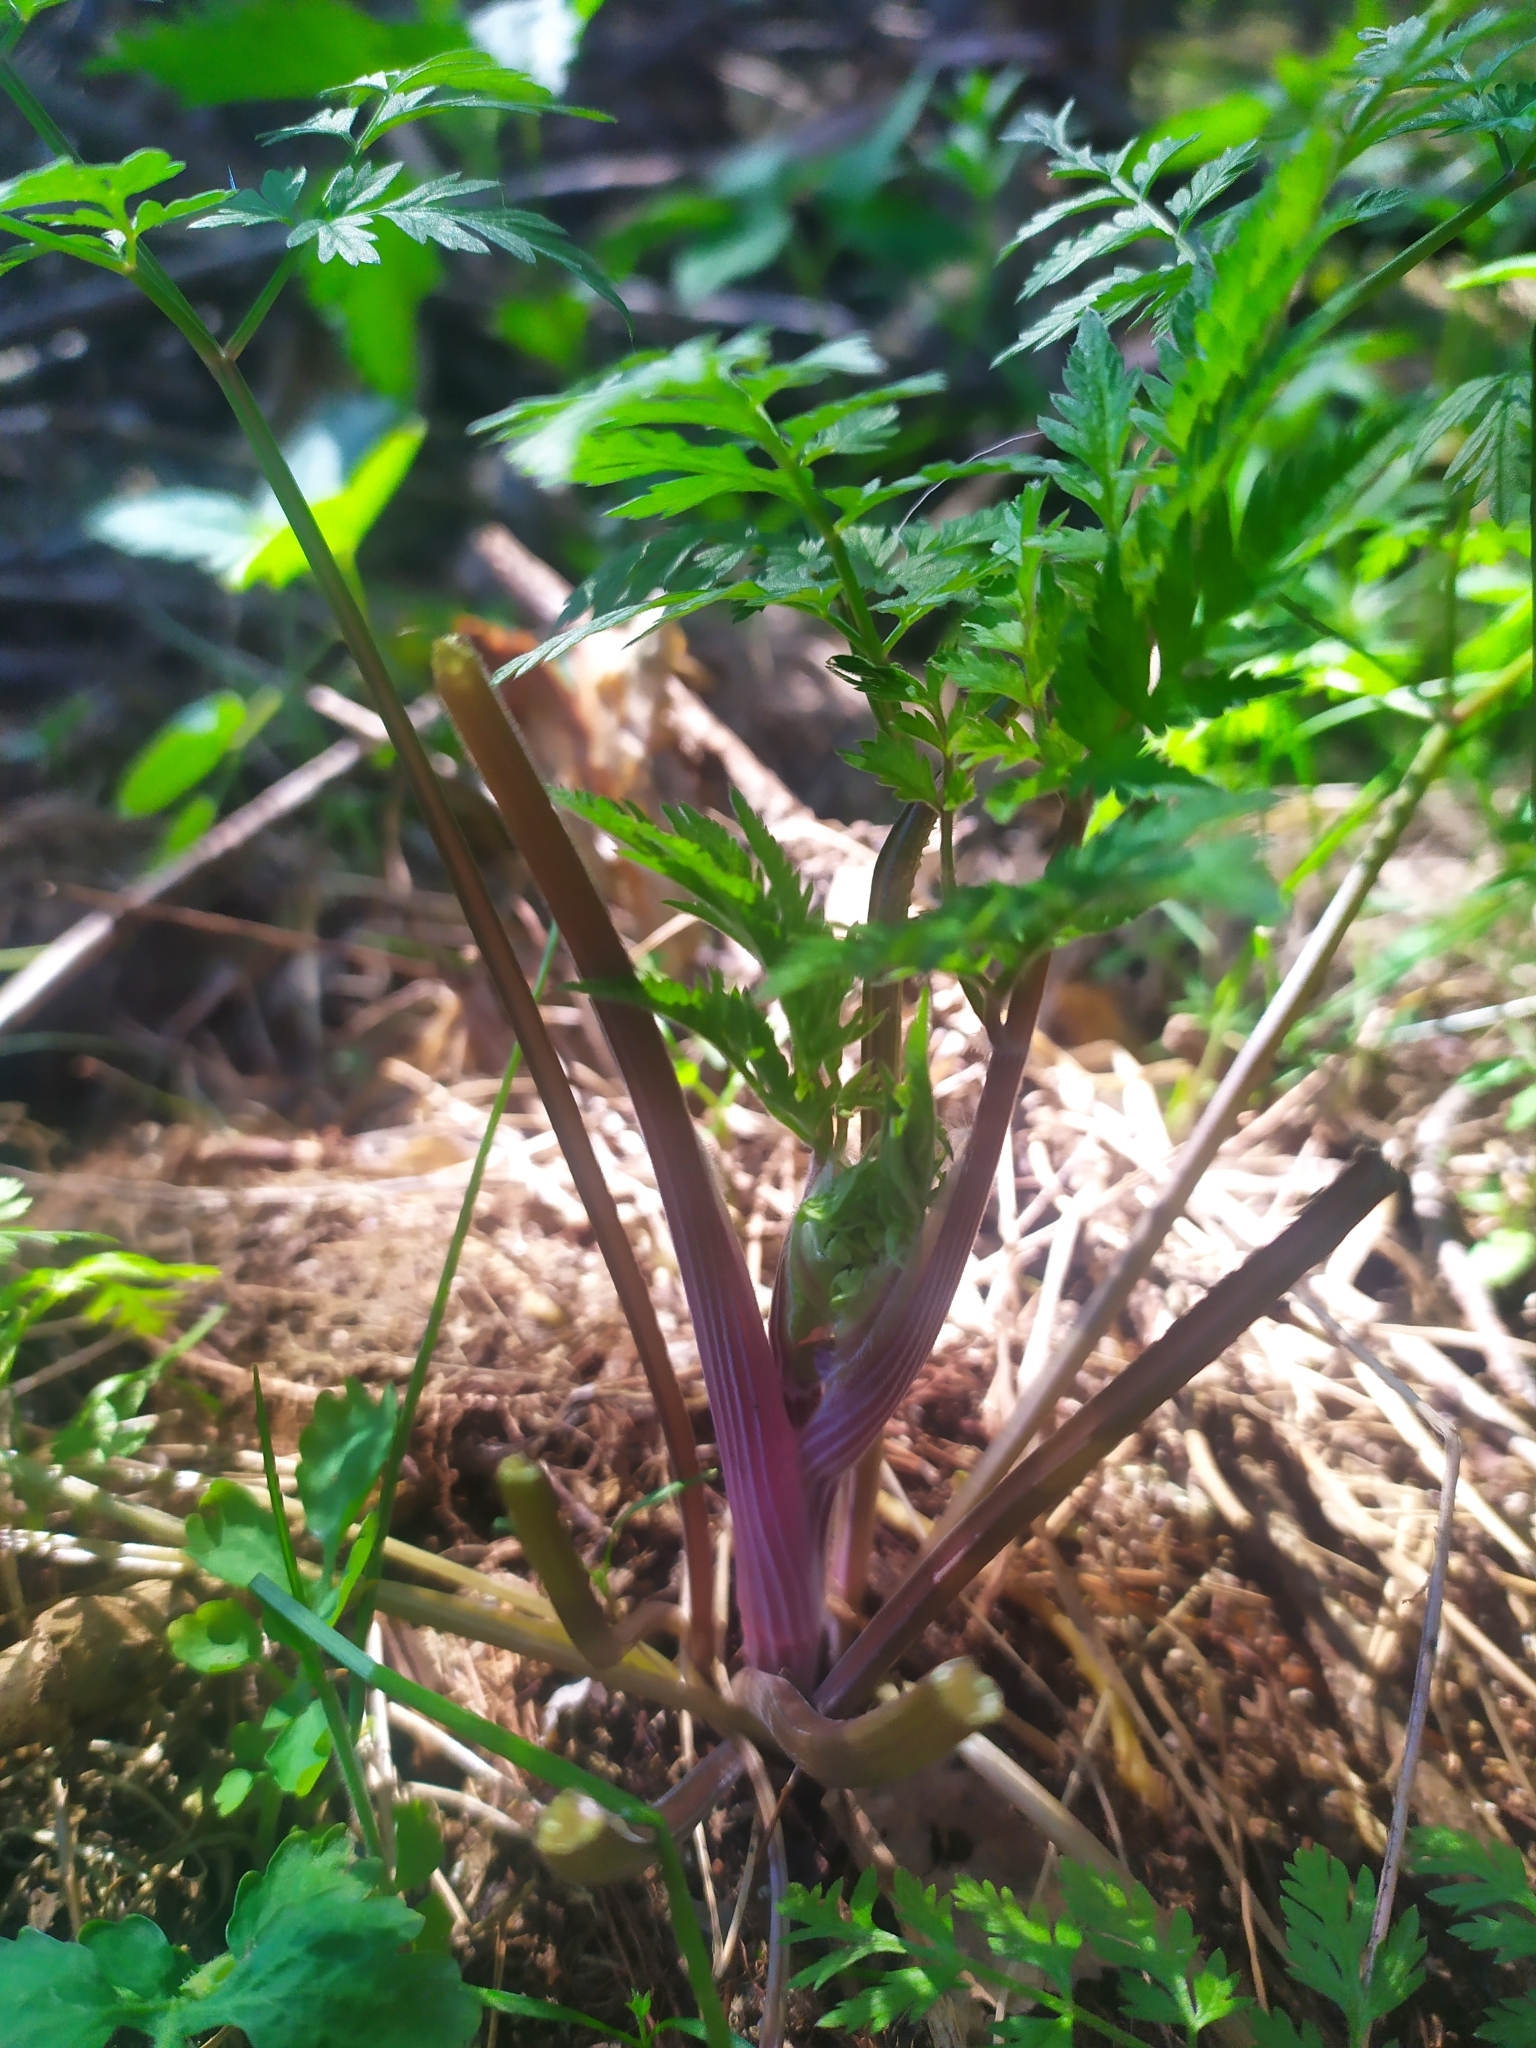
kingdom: Plantae
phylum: Tracheophyta
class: Magnoliopsida
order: Apiales
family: Apiaceae
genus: Anthriscus
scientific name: Anthriscus sylvestris
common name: Cow parsley
